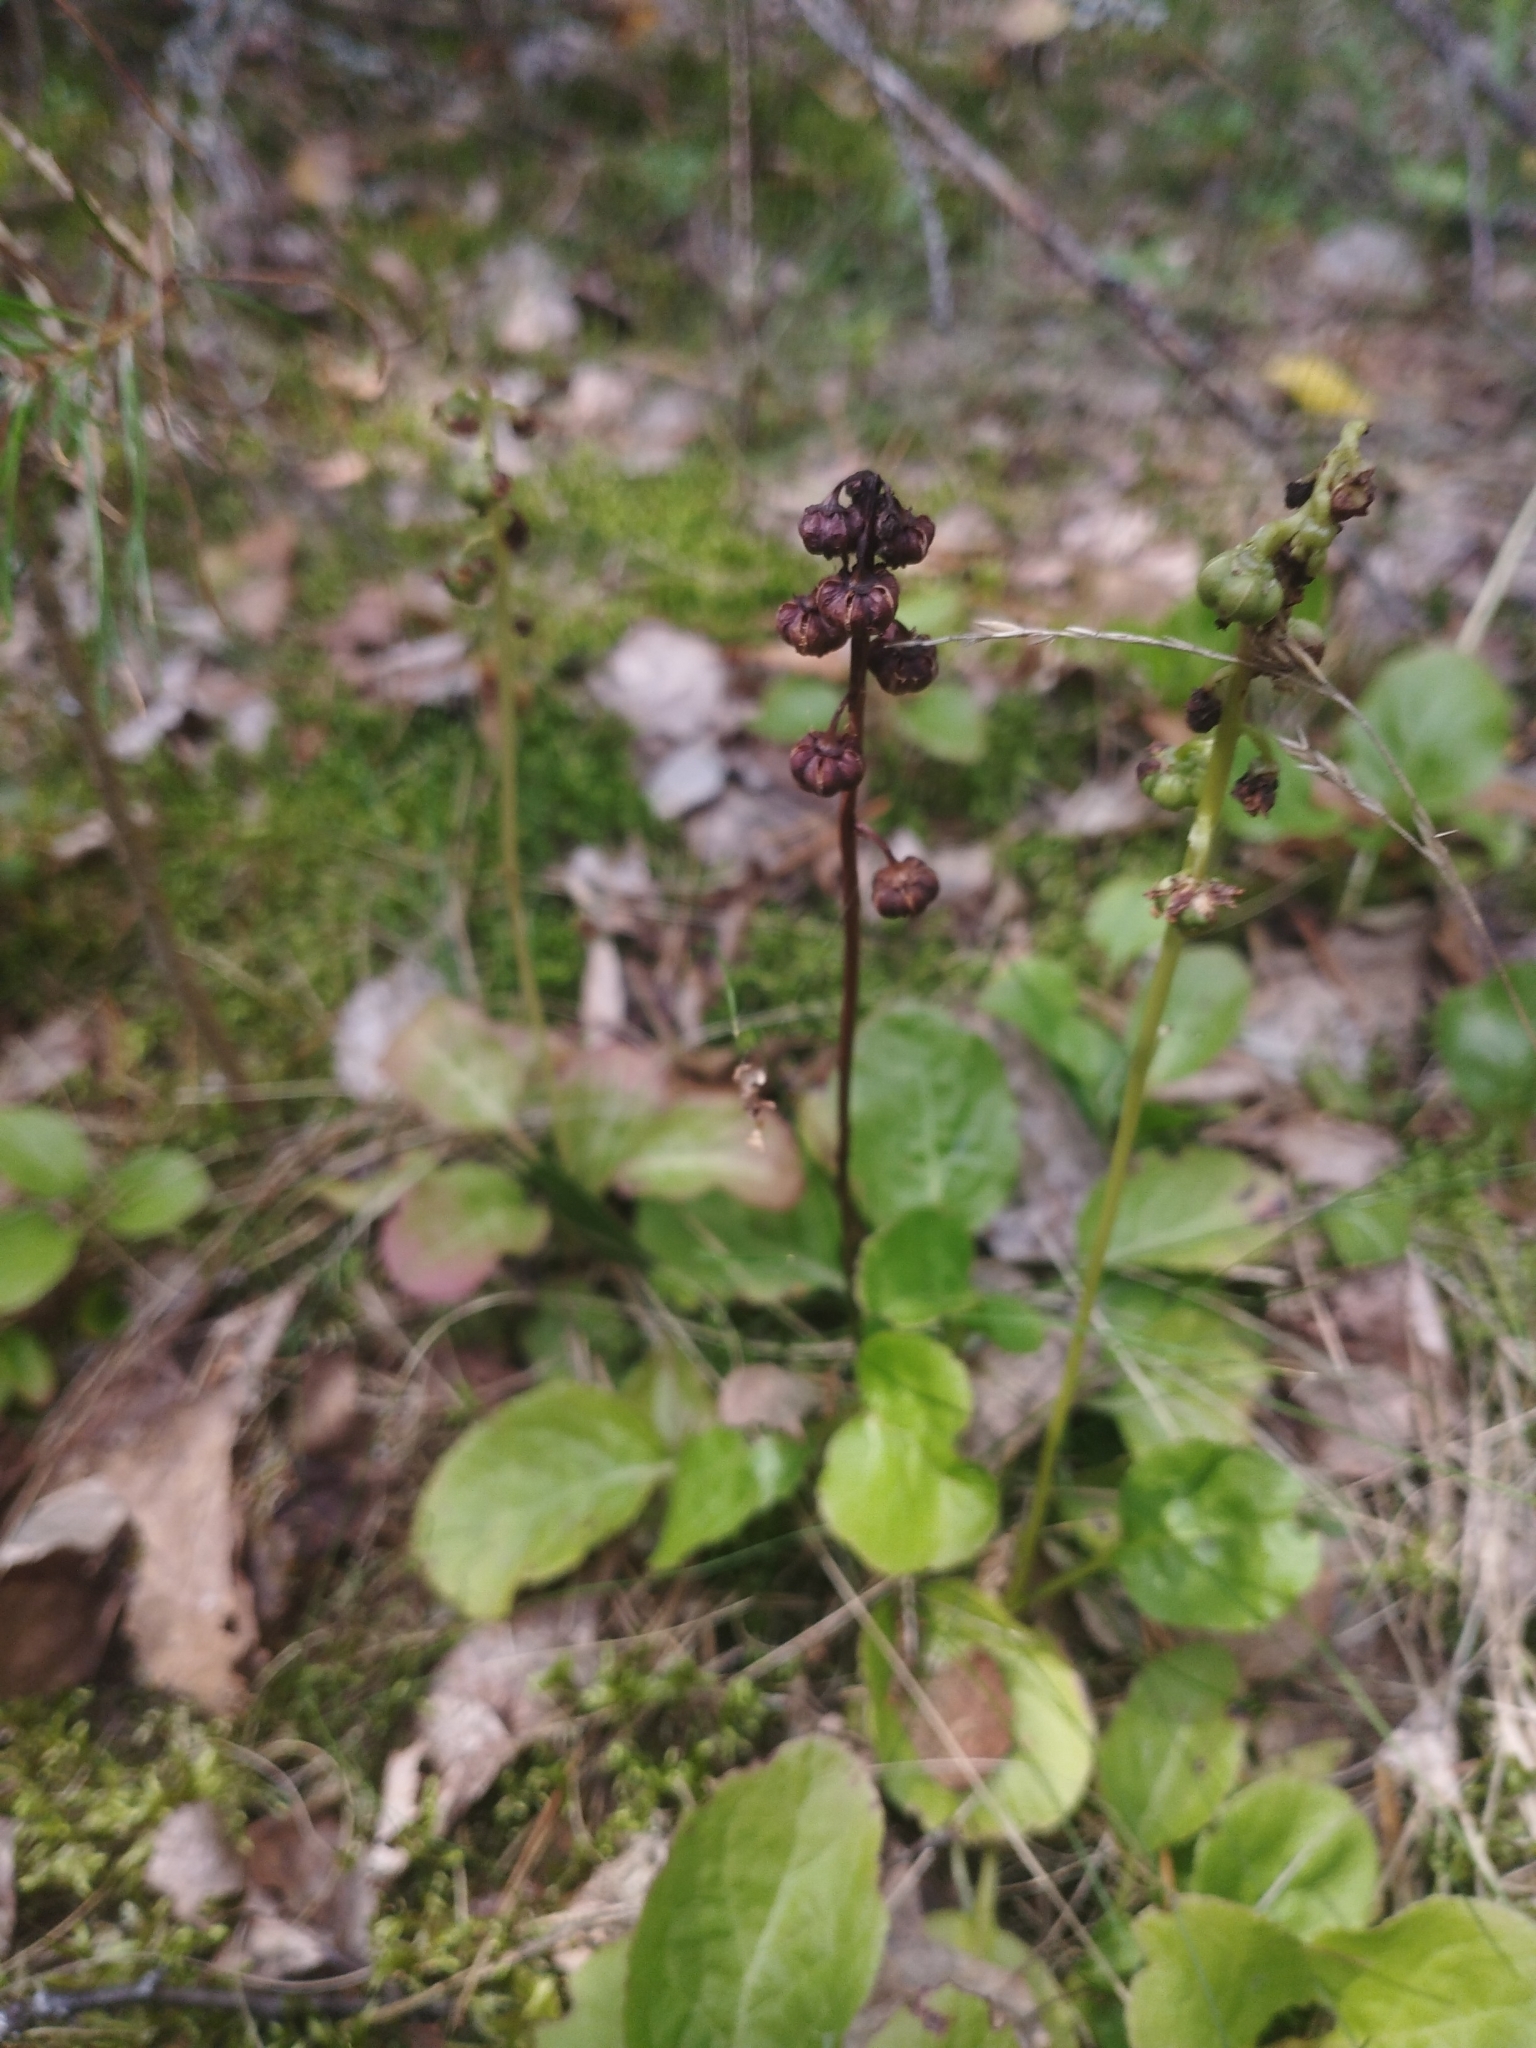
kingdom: Plantae
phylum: Tracheophyta
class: Magnoliopsida
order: Ericales
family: Ericaceae
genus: Pyrola
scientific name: Pyrola minor
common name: Common wintergreen
